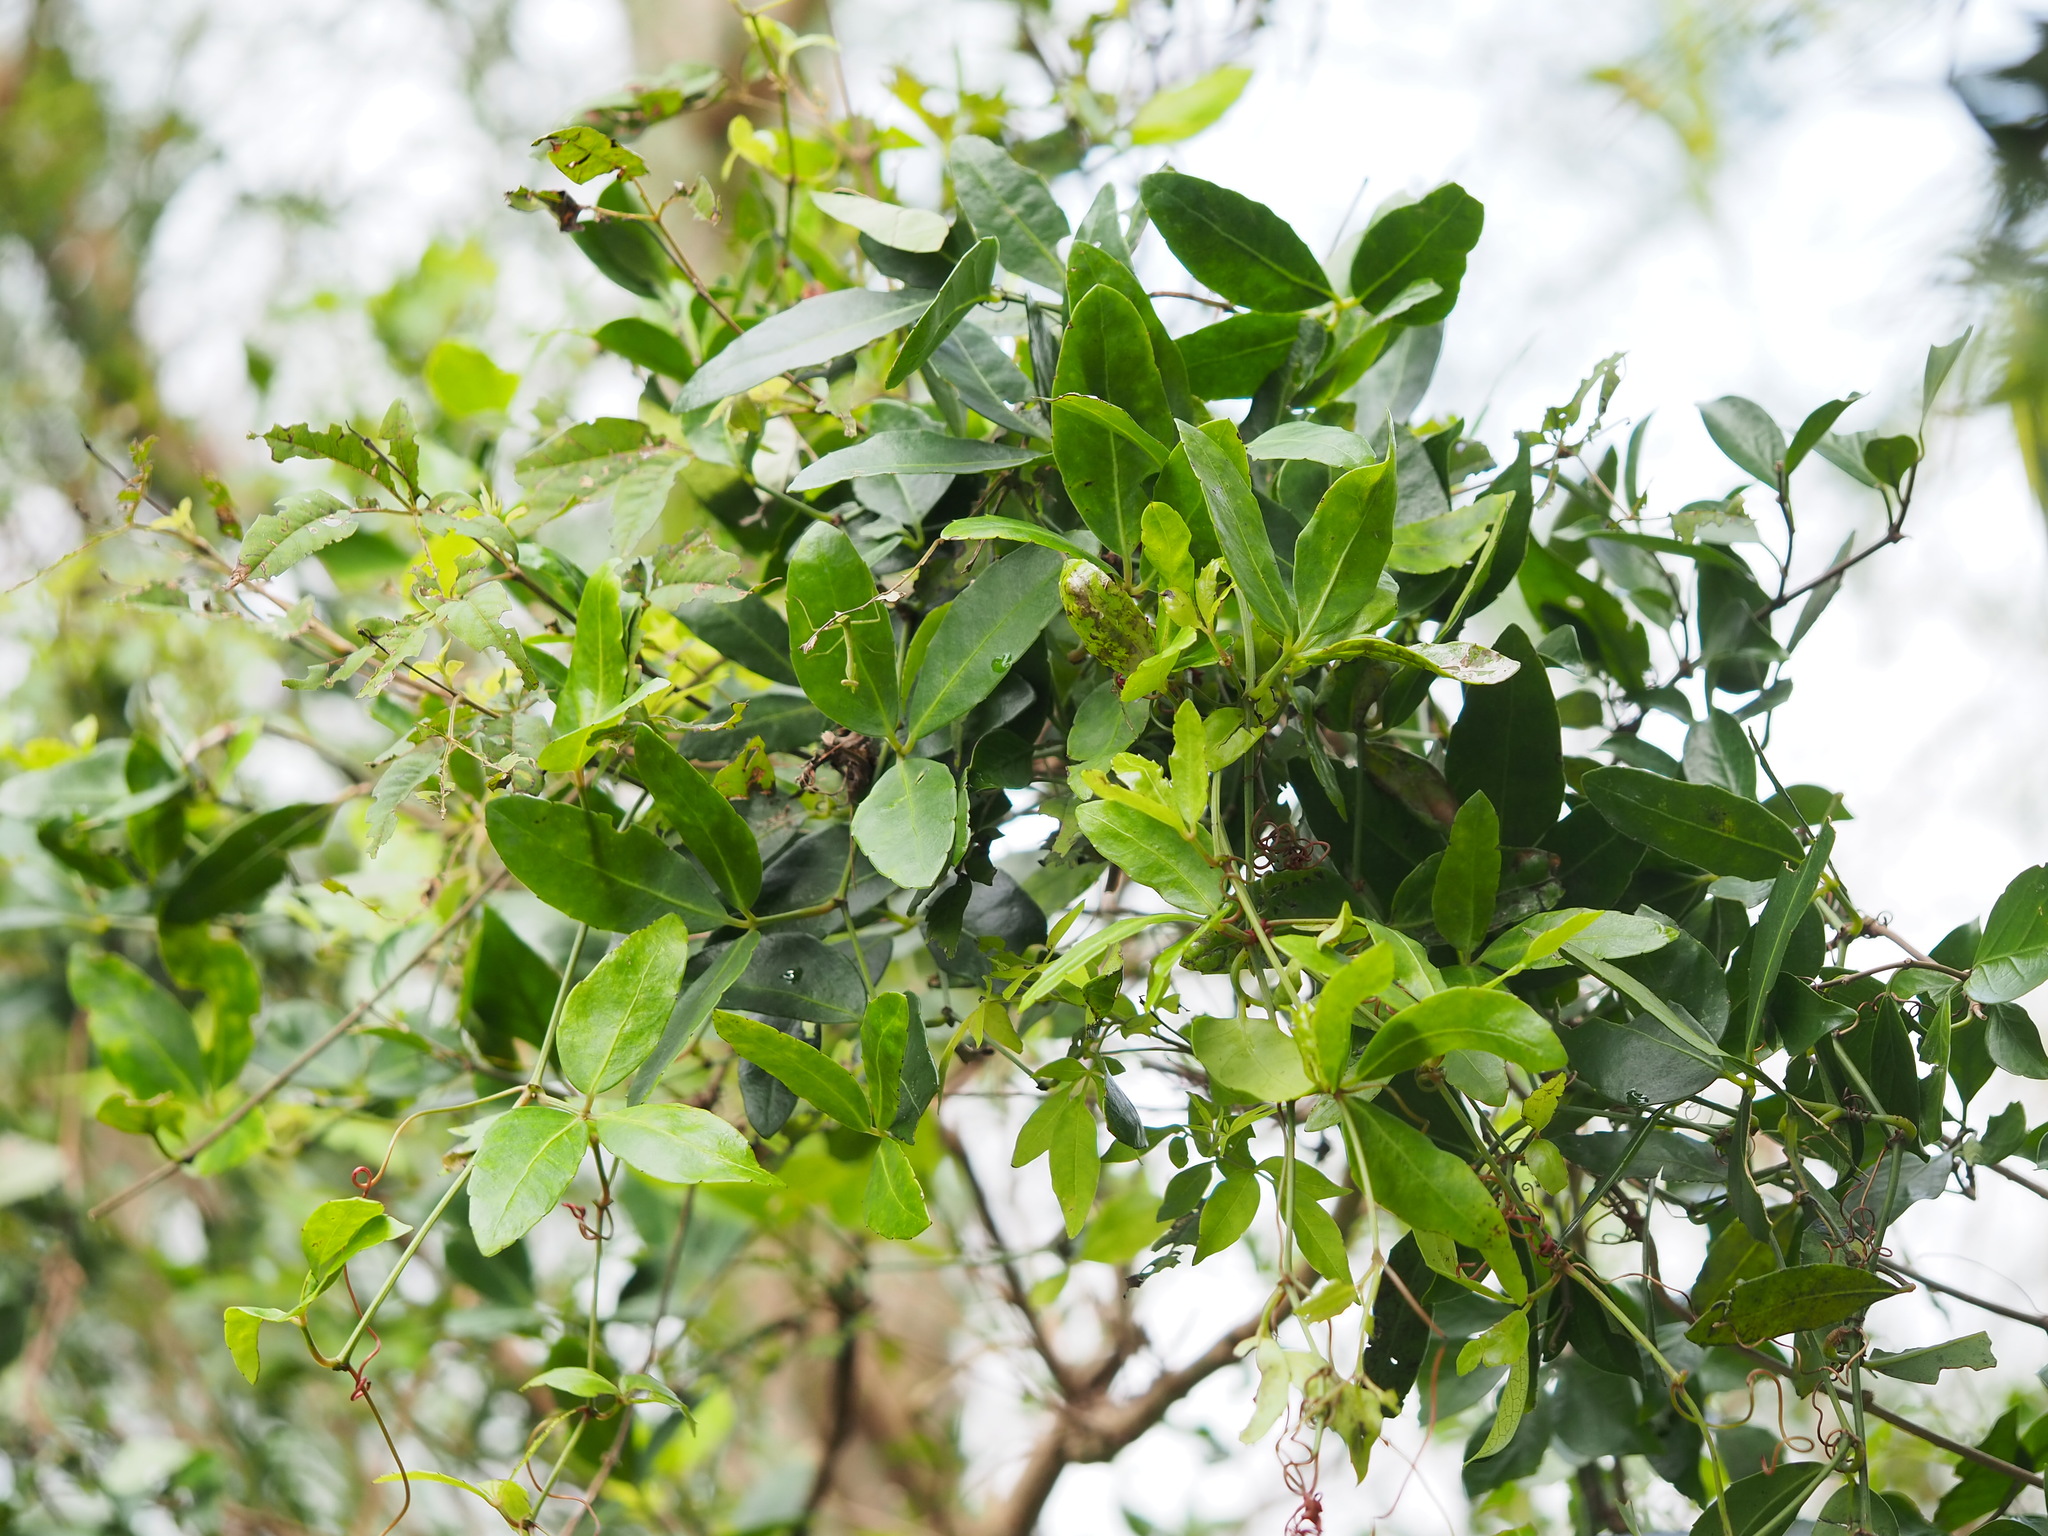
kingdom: Plantae
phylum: Tracheophyta
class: Magnoliopsida
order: Vitales
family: Vitaceae
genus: Tetrastigma
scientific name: Tetrastigma formosanum
